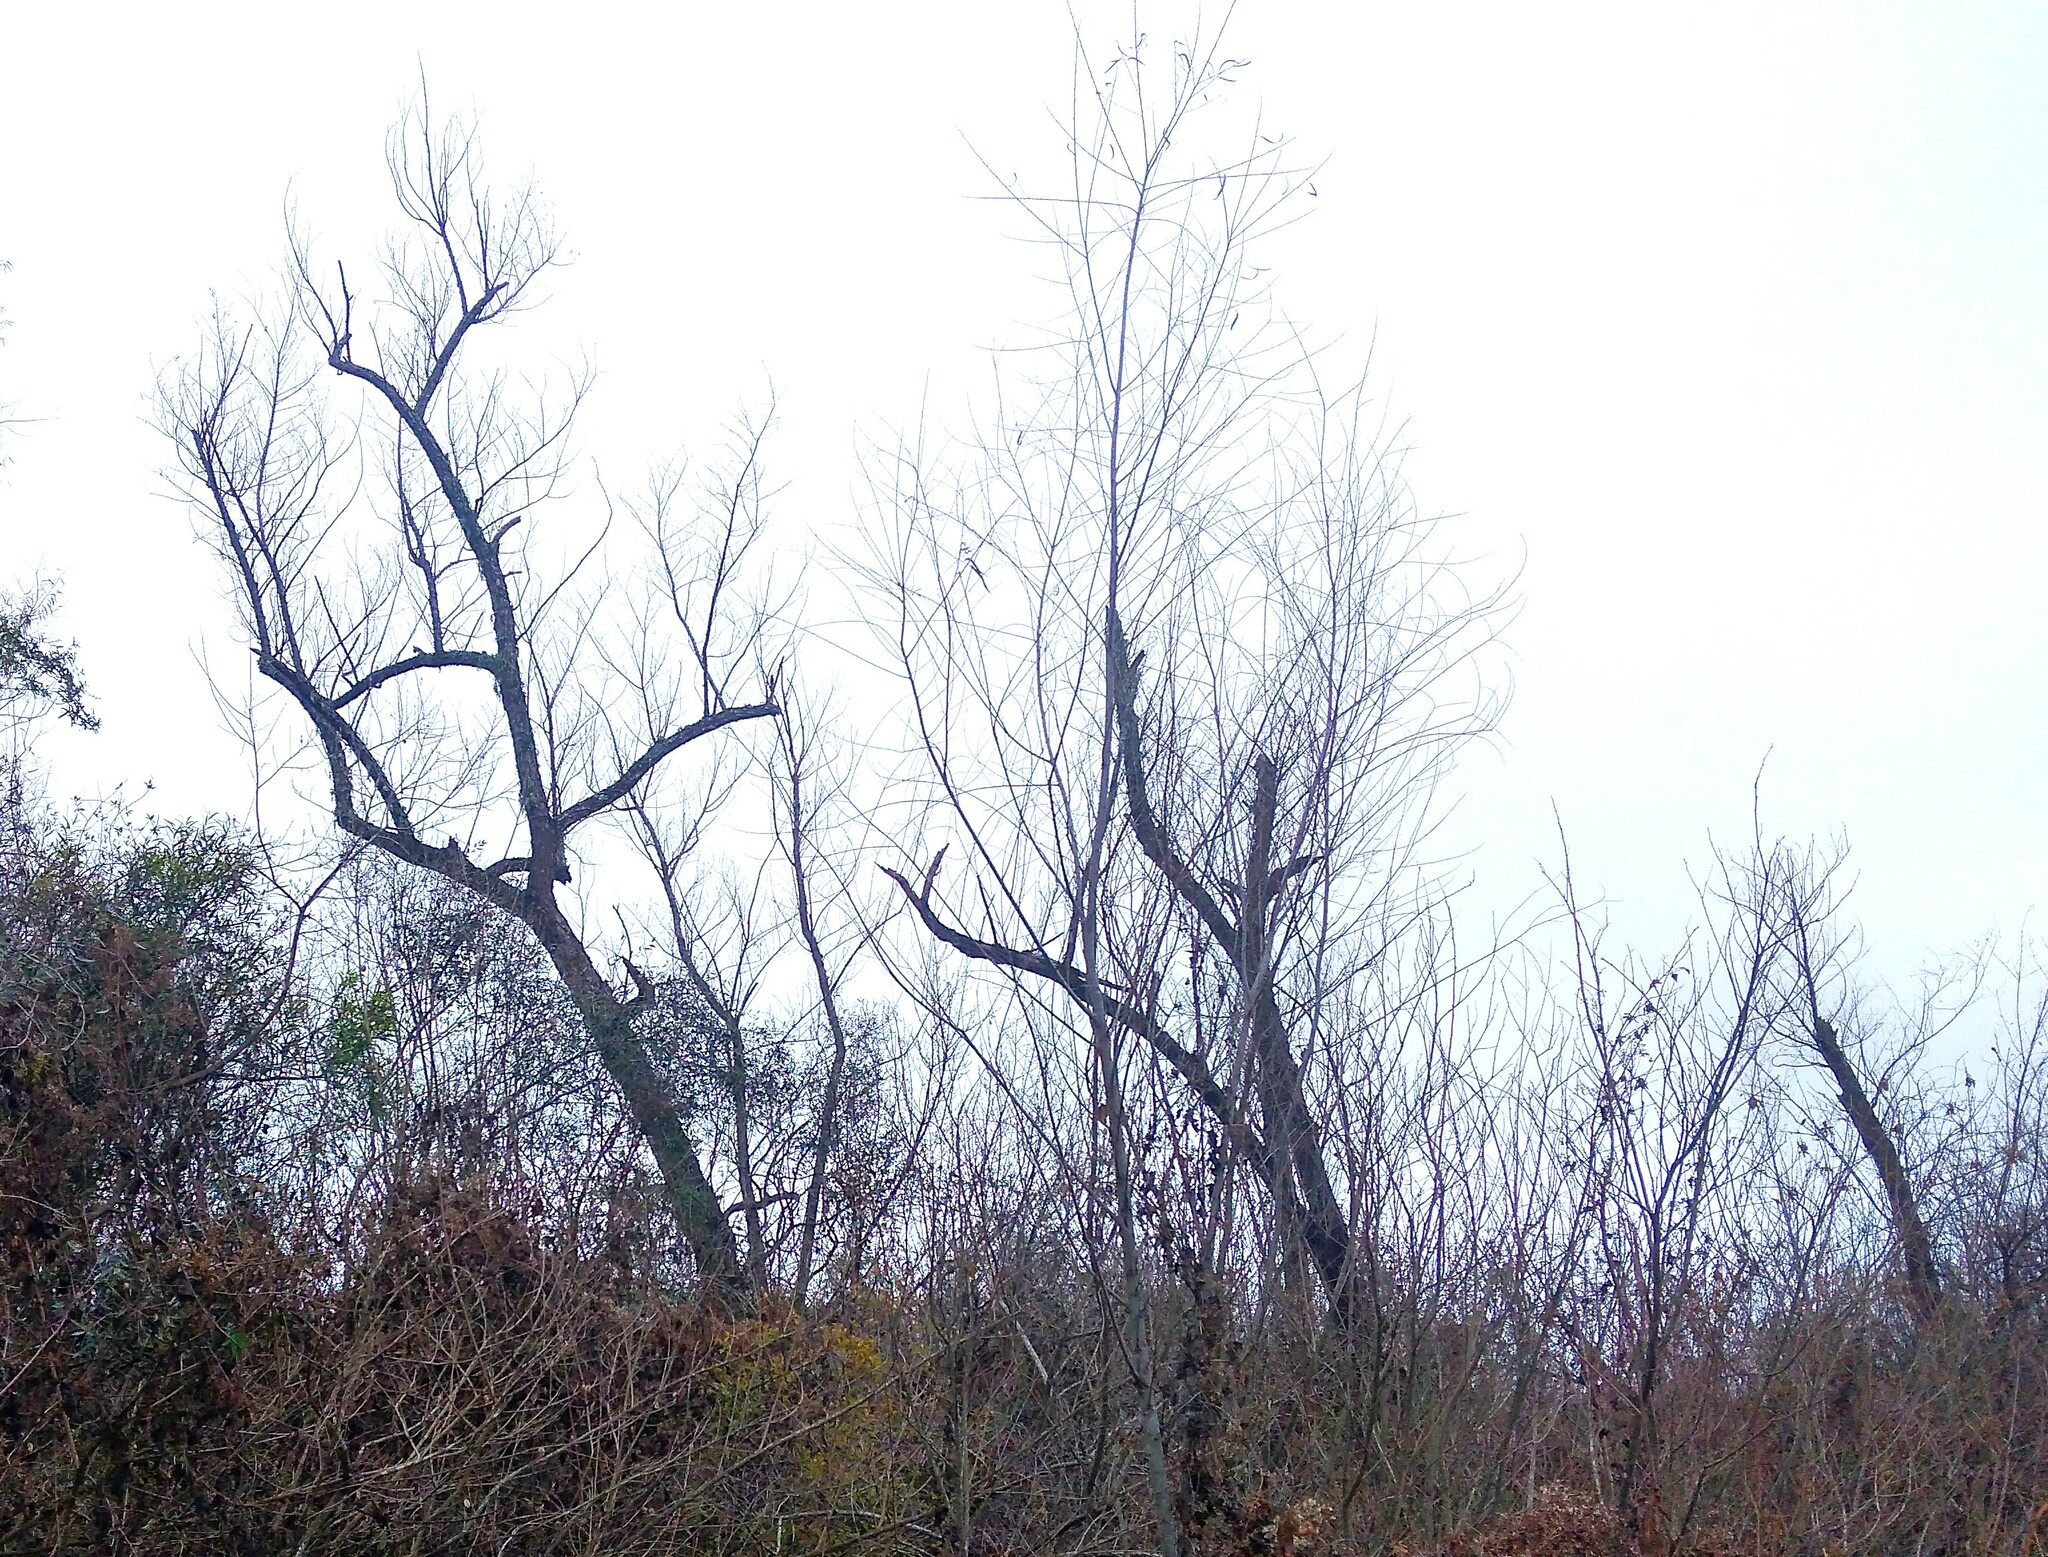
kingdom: Plantae
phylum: Tracheophyta
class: Magnoliopsida
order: Malpighiales
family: Salicaceae
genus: Salix
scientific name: Salix humboldtiana
